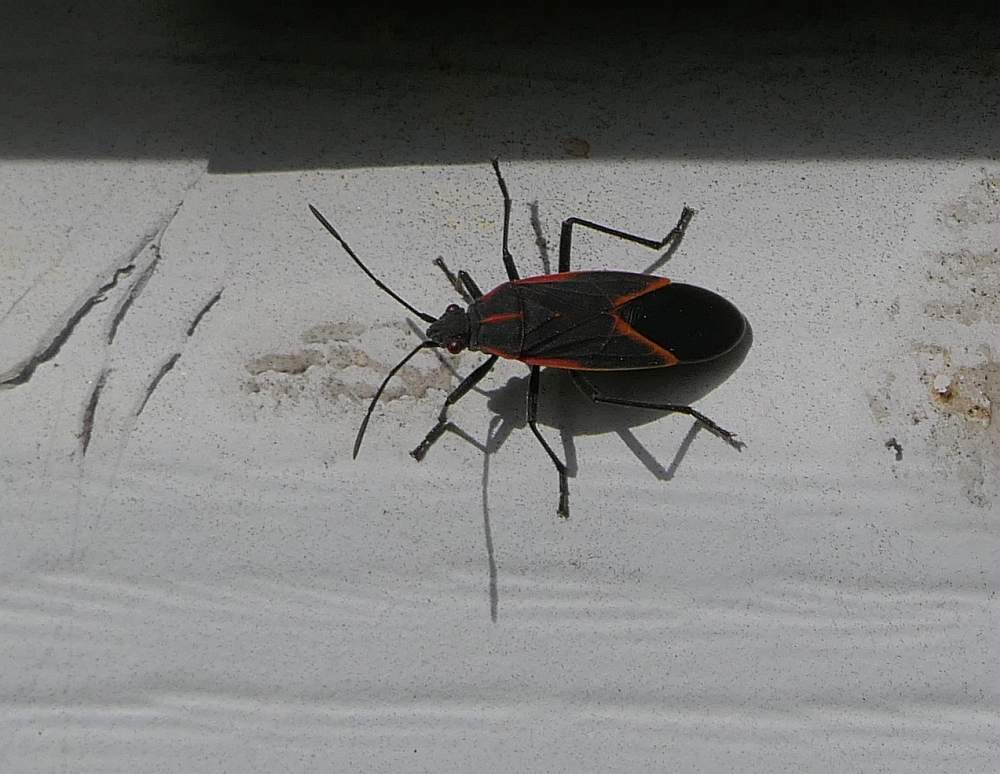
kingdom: Animalia
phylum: Arthropoda
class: Insecta
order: Hemiptera
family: Rhopalidae
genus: Boisea
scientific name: Boisea trivittata
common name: Boxelder bug
